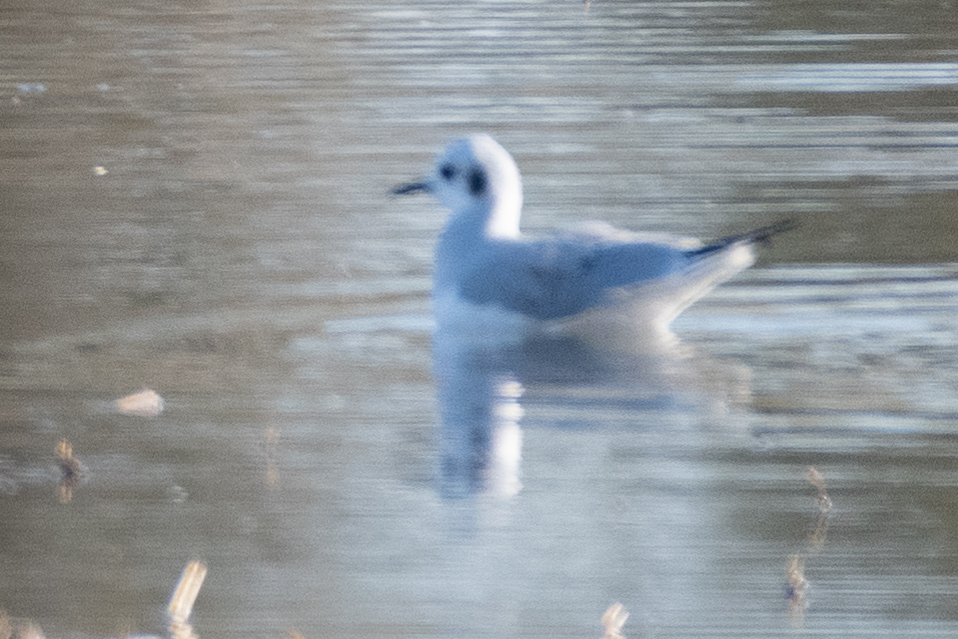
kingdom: Animalia
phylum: Chordata
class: Aves
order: Charadriiformes
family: Laridae
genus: Chroicocephalus
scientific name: Chroicocephalus philadelphia
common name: Bonaparte's gull
